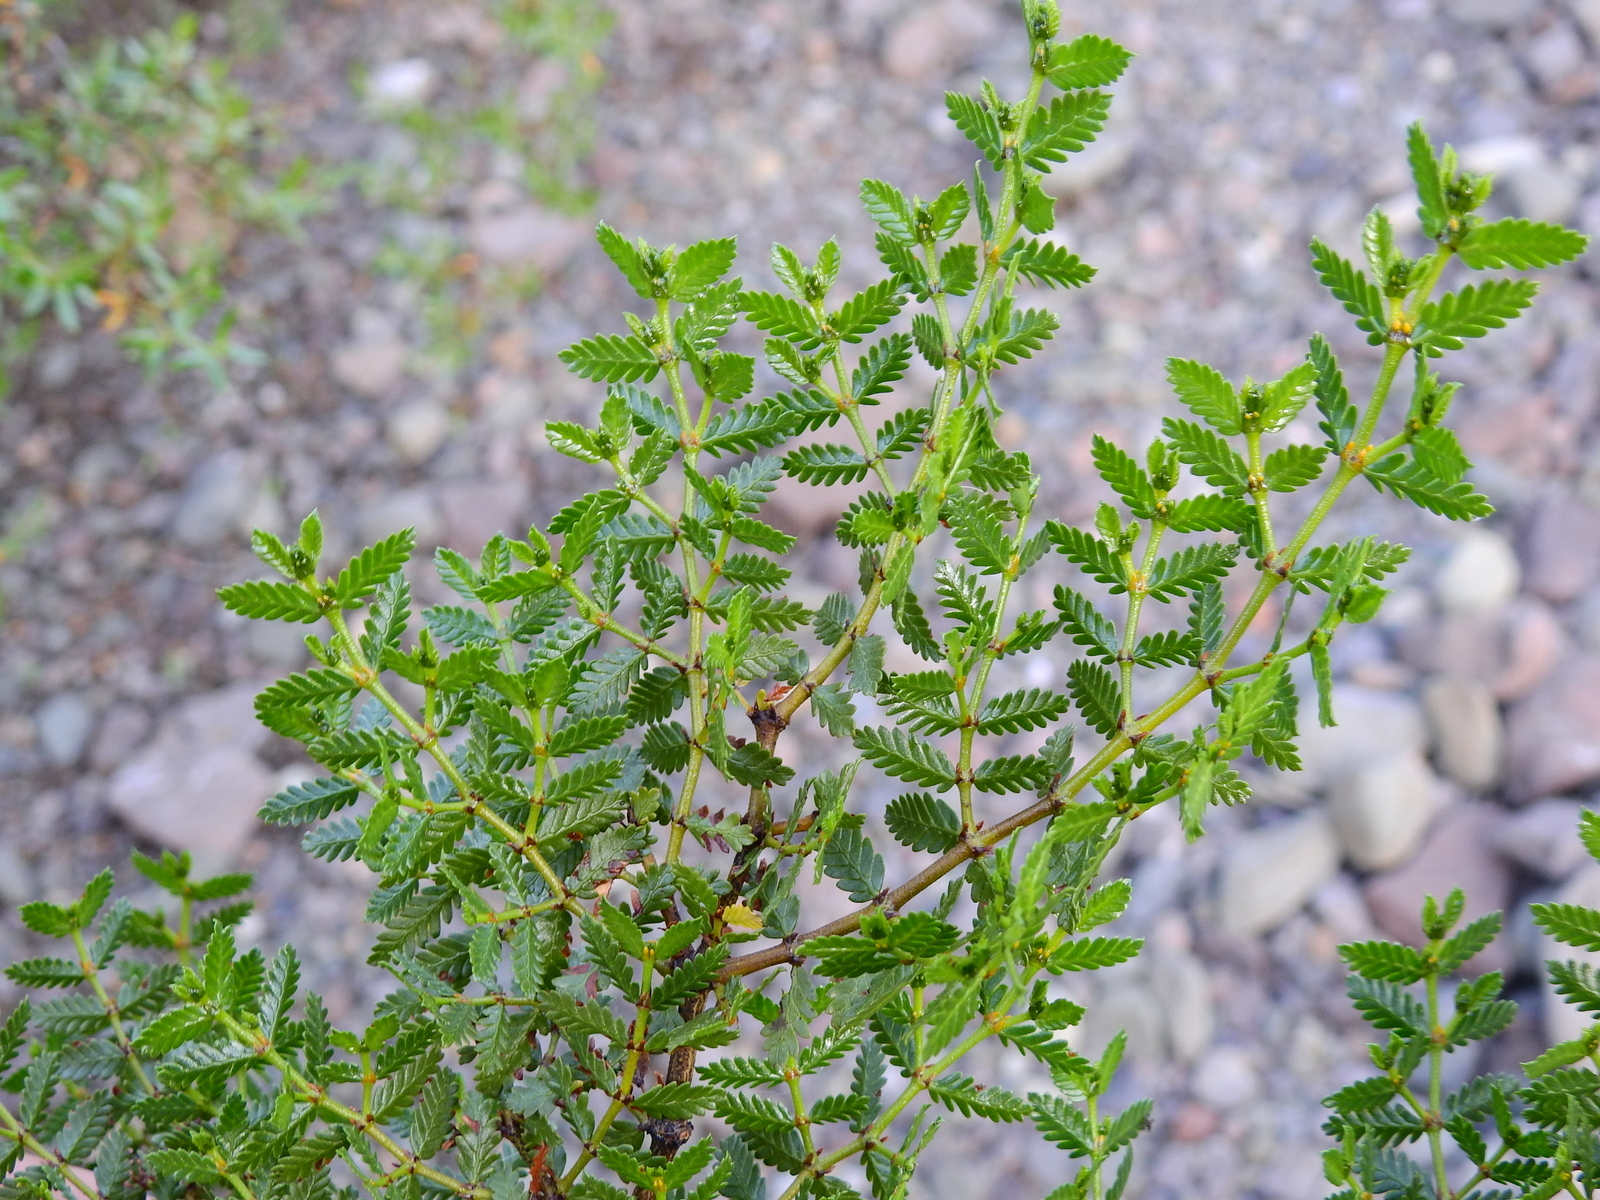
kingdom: Plantae
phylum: Tracheophyta
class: Magnoliopsida
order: Zygophyllales
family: Zygophyllaceae
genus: Larrea
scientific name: Larrea nitida
